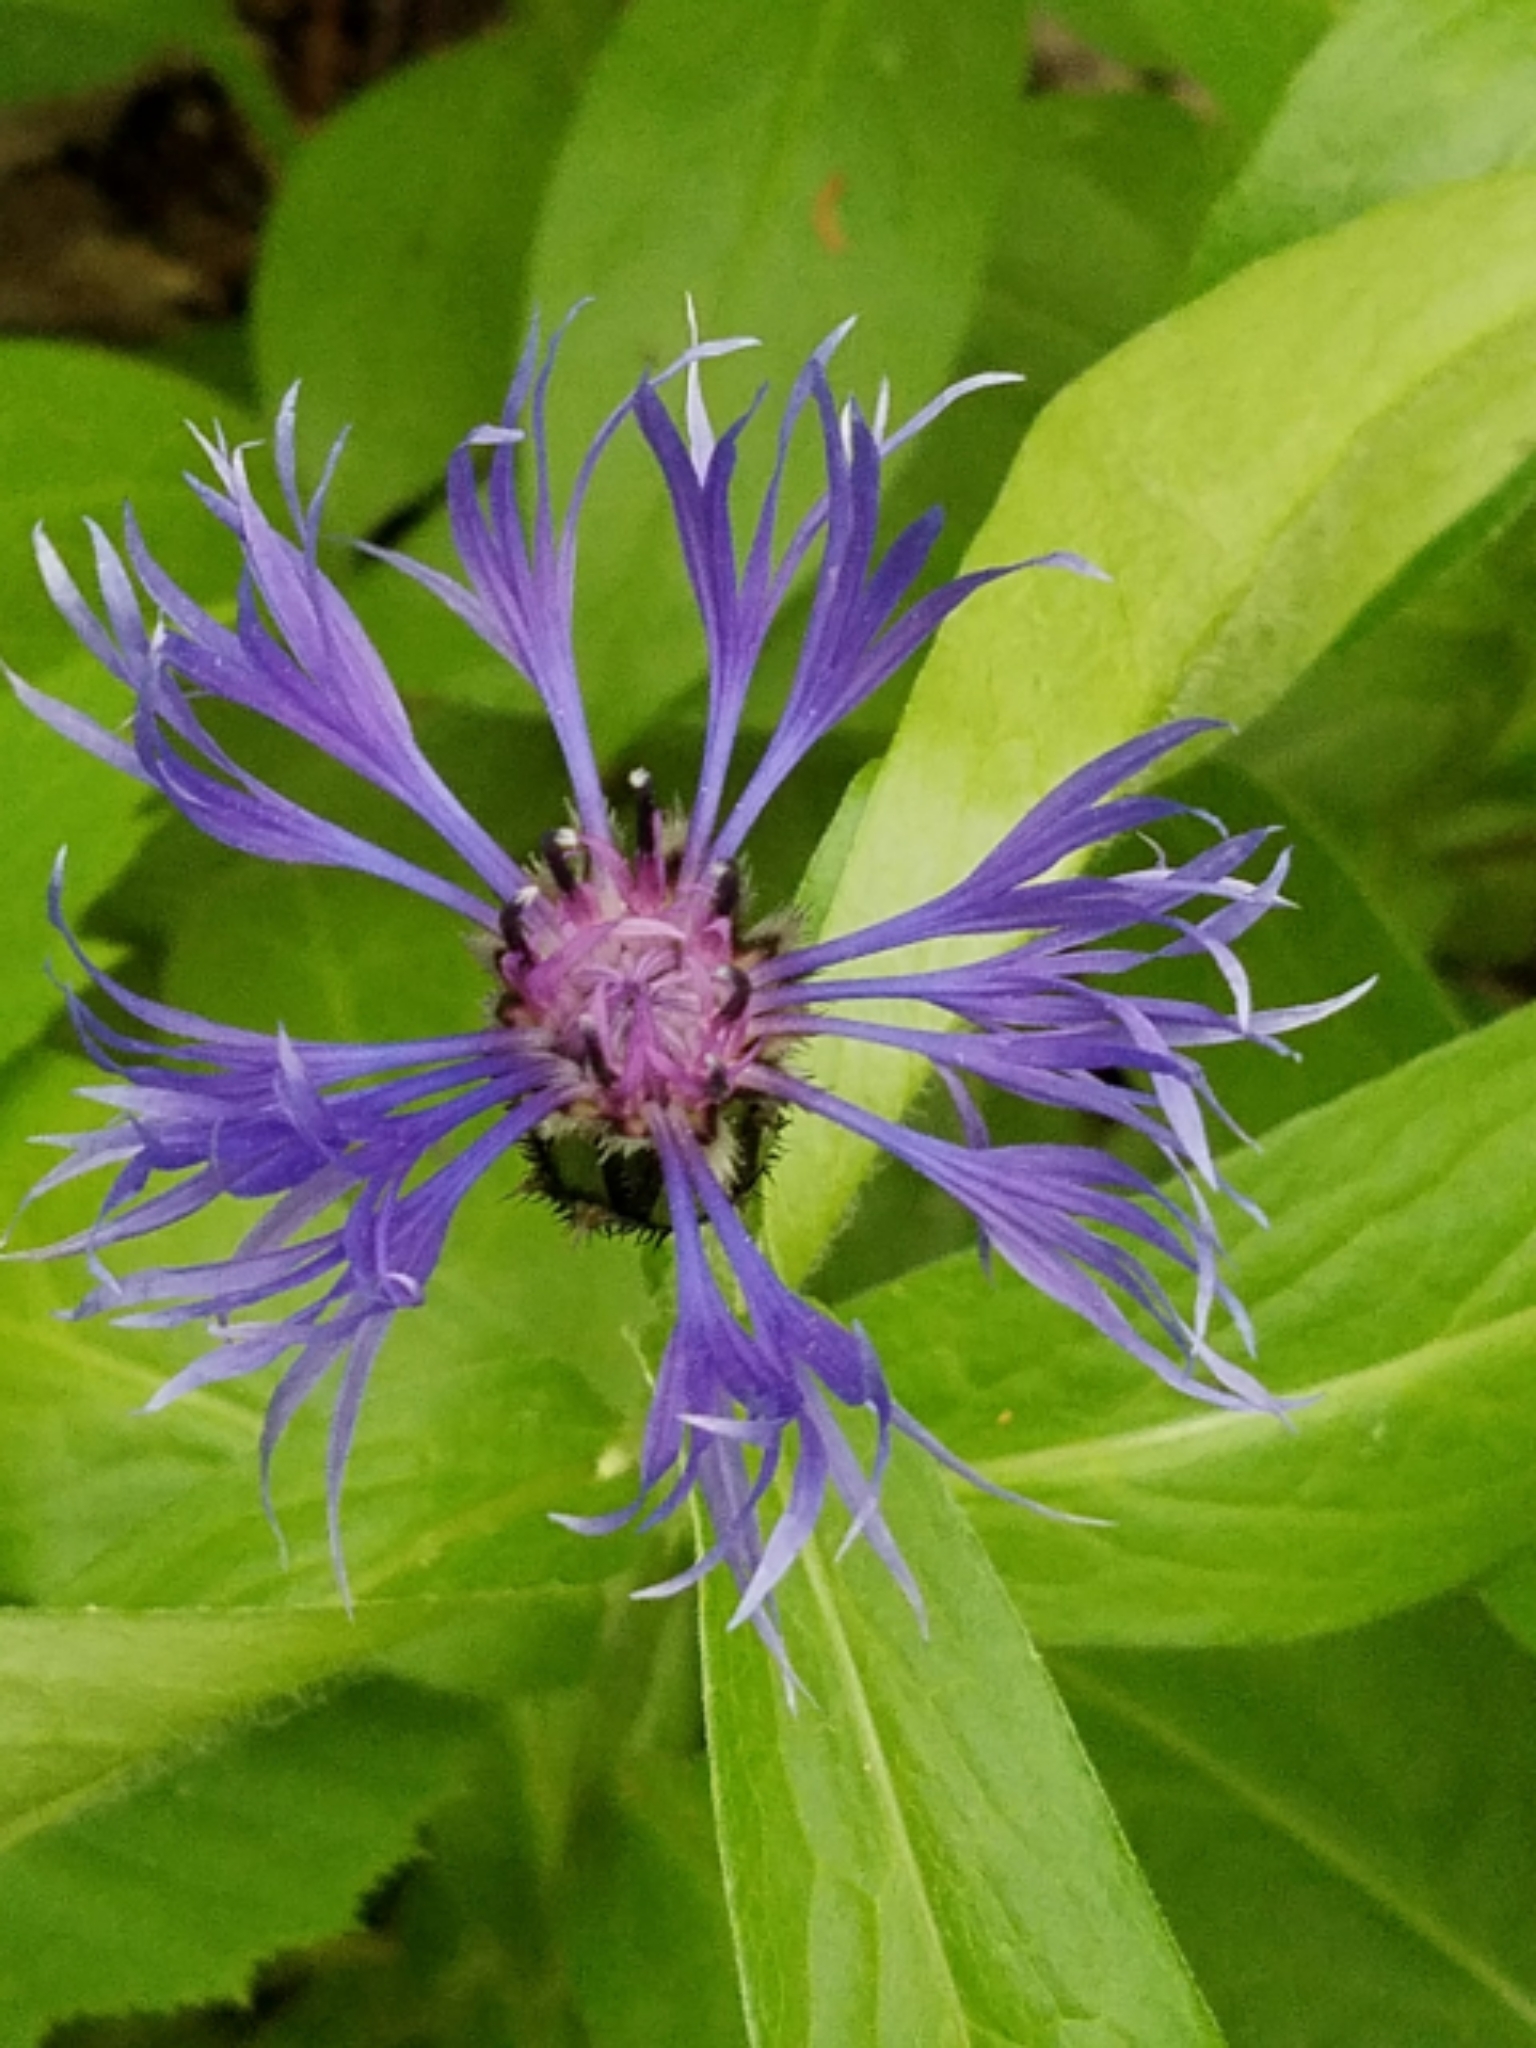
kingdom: Plantae
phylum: Tracheophyta
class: Magnoliopsida
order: Asterales
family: Asteraceae
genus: Centaurea
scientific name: Centaurea montana
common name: Perennial cornflower
